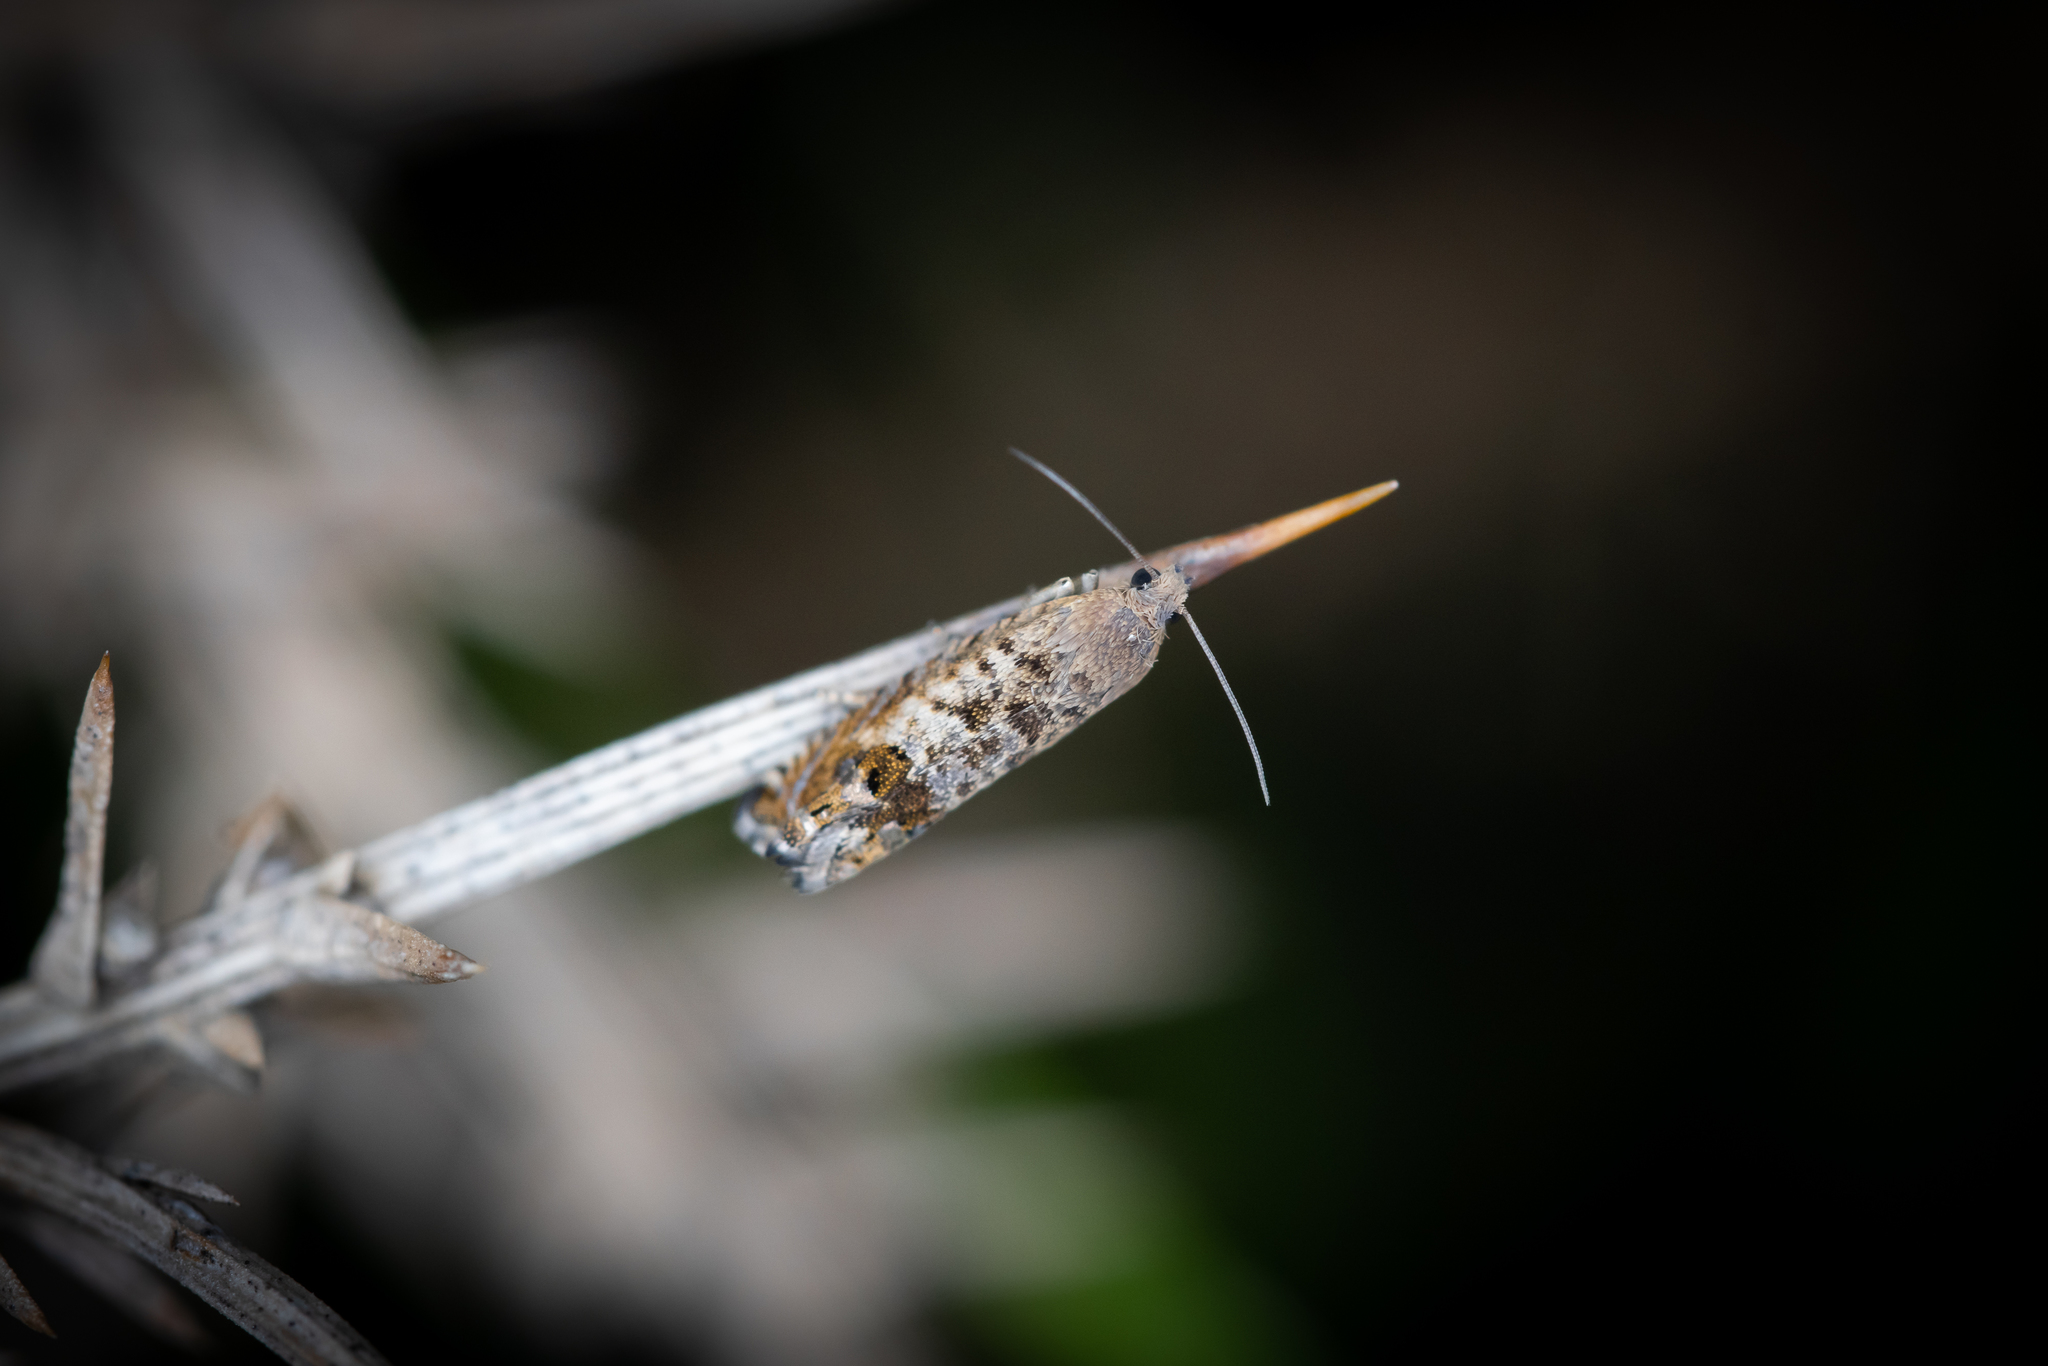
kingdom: Animalia
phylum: Arthropoda
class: Insecta
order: Lepidoptera
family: Tortricidae
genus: Cydia
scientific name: Cydia succedana
